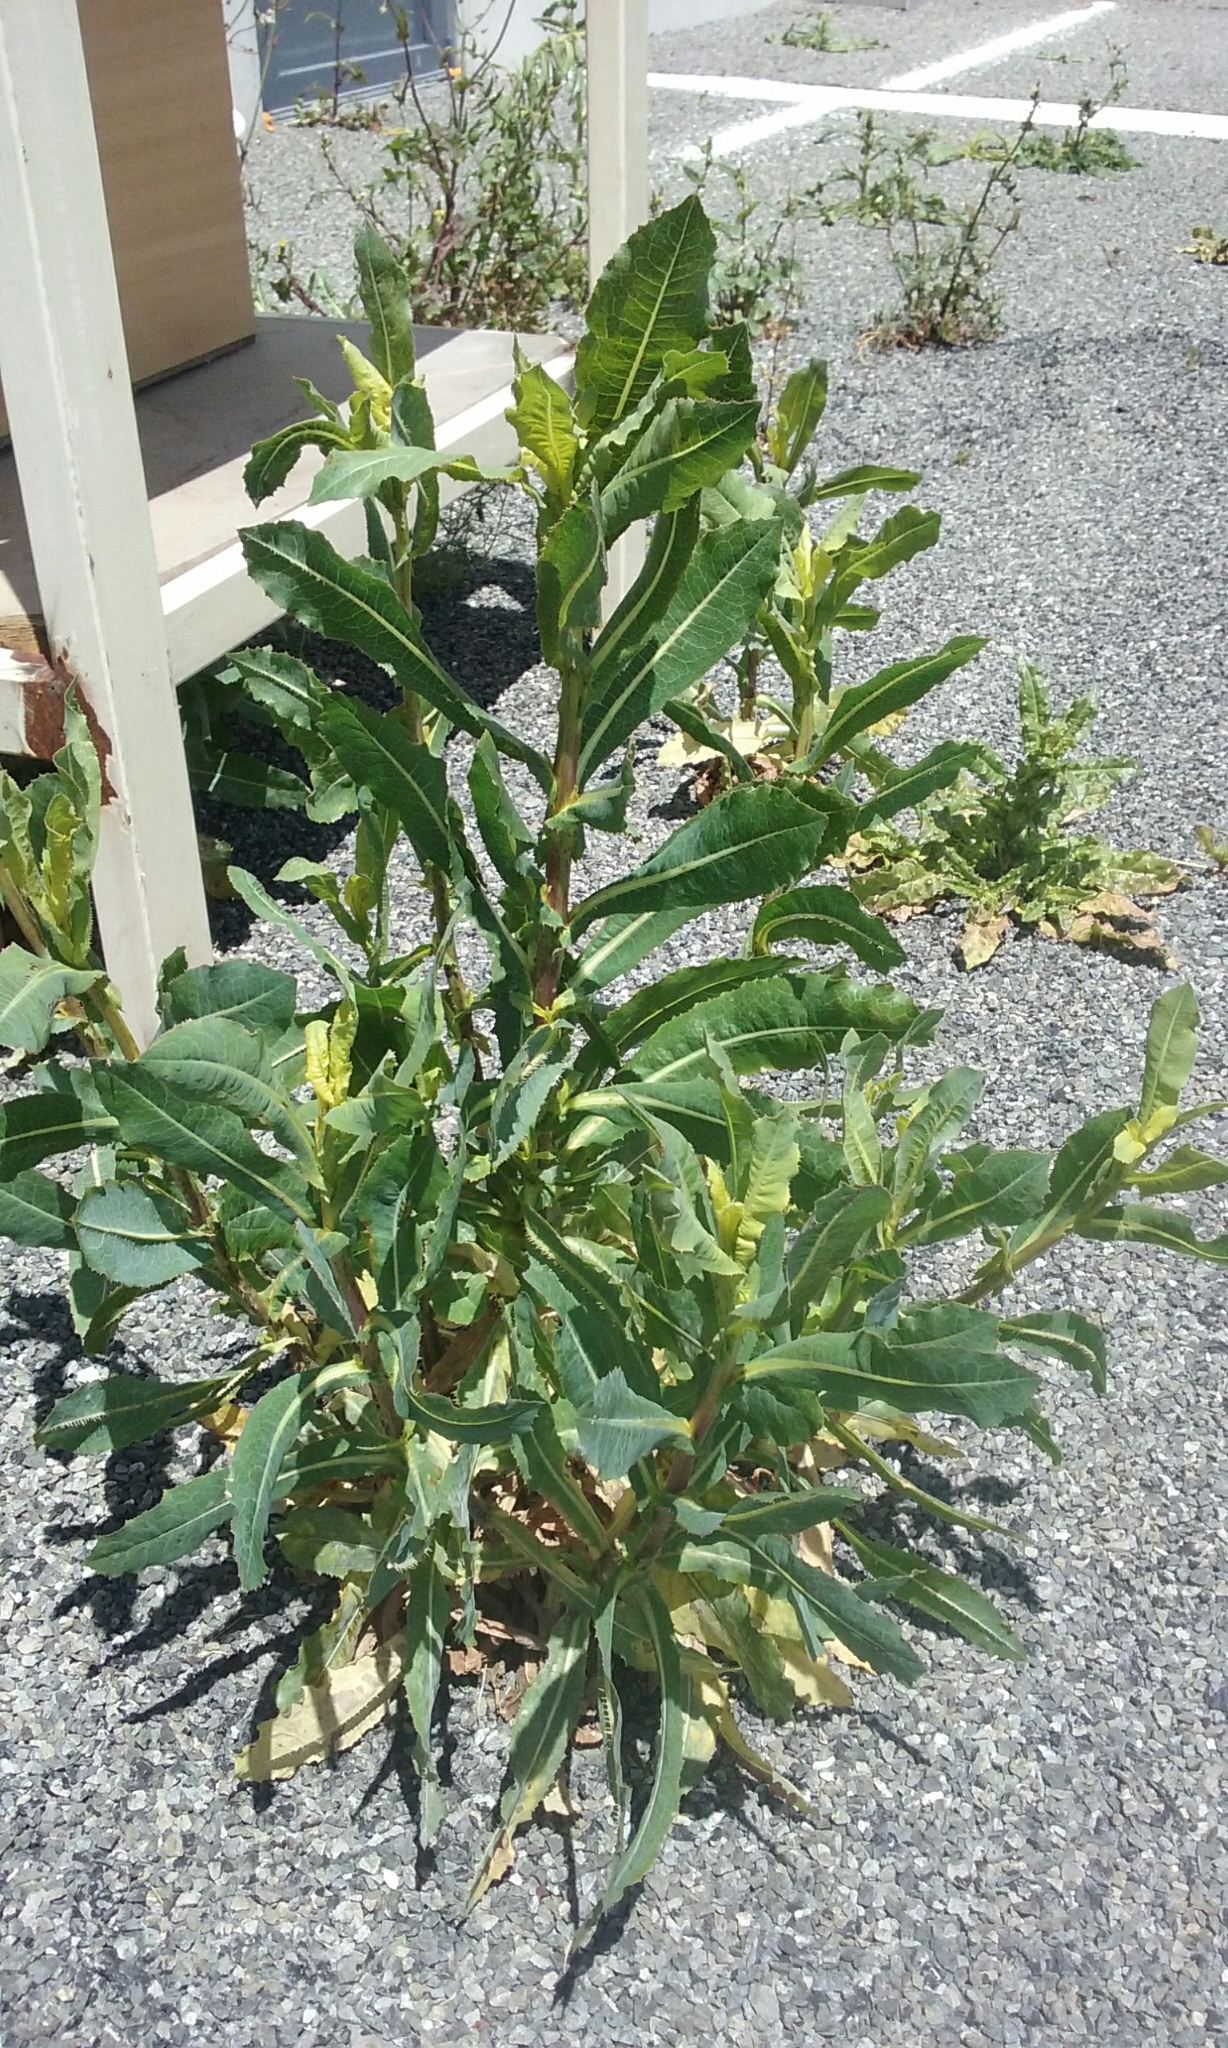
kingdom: Plantae
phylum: Tracheophyta
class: Magnoliopsida
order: Asterales
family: Asteraceae
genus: Lactuca
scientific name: Lactuca serriola
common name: Prickly lettuce
